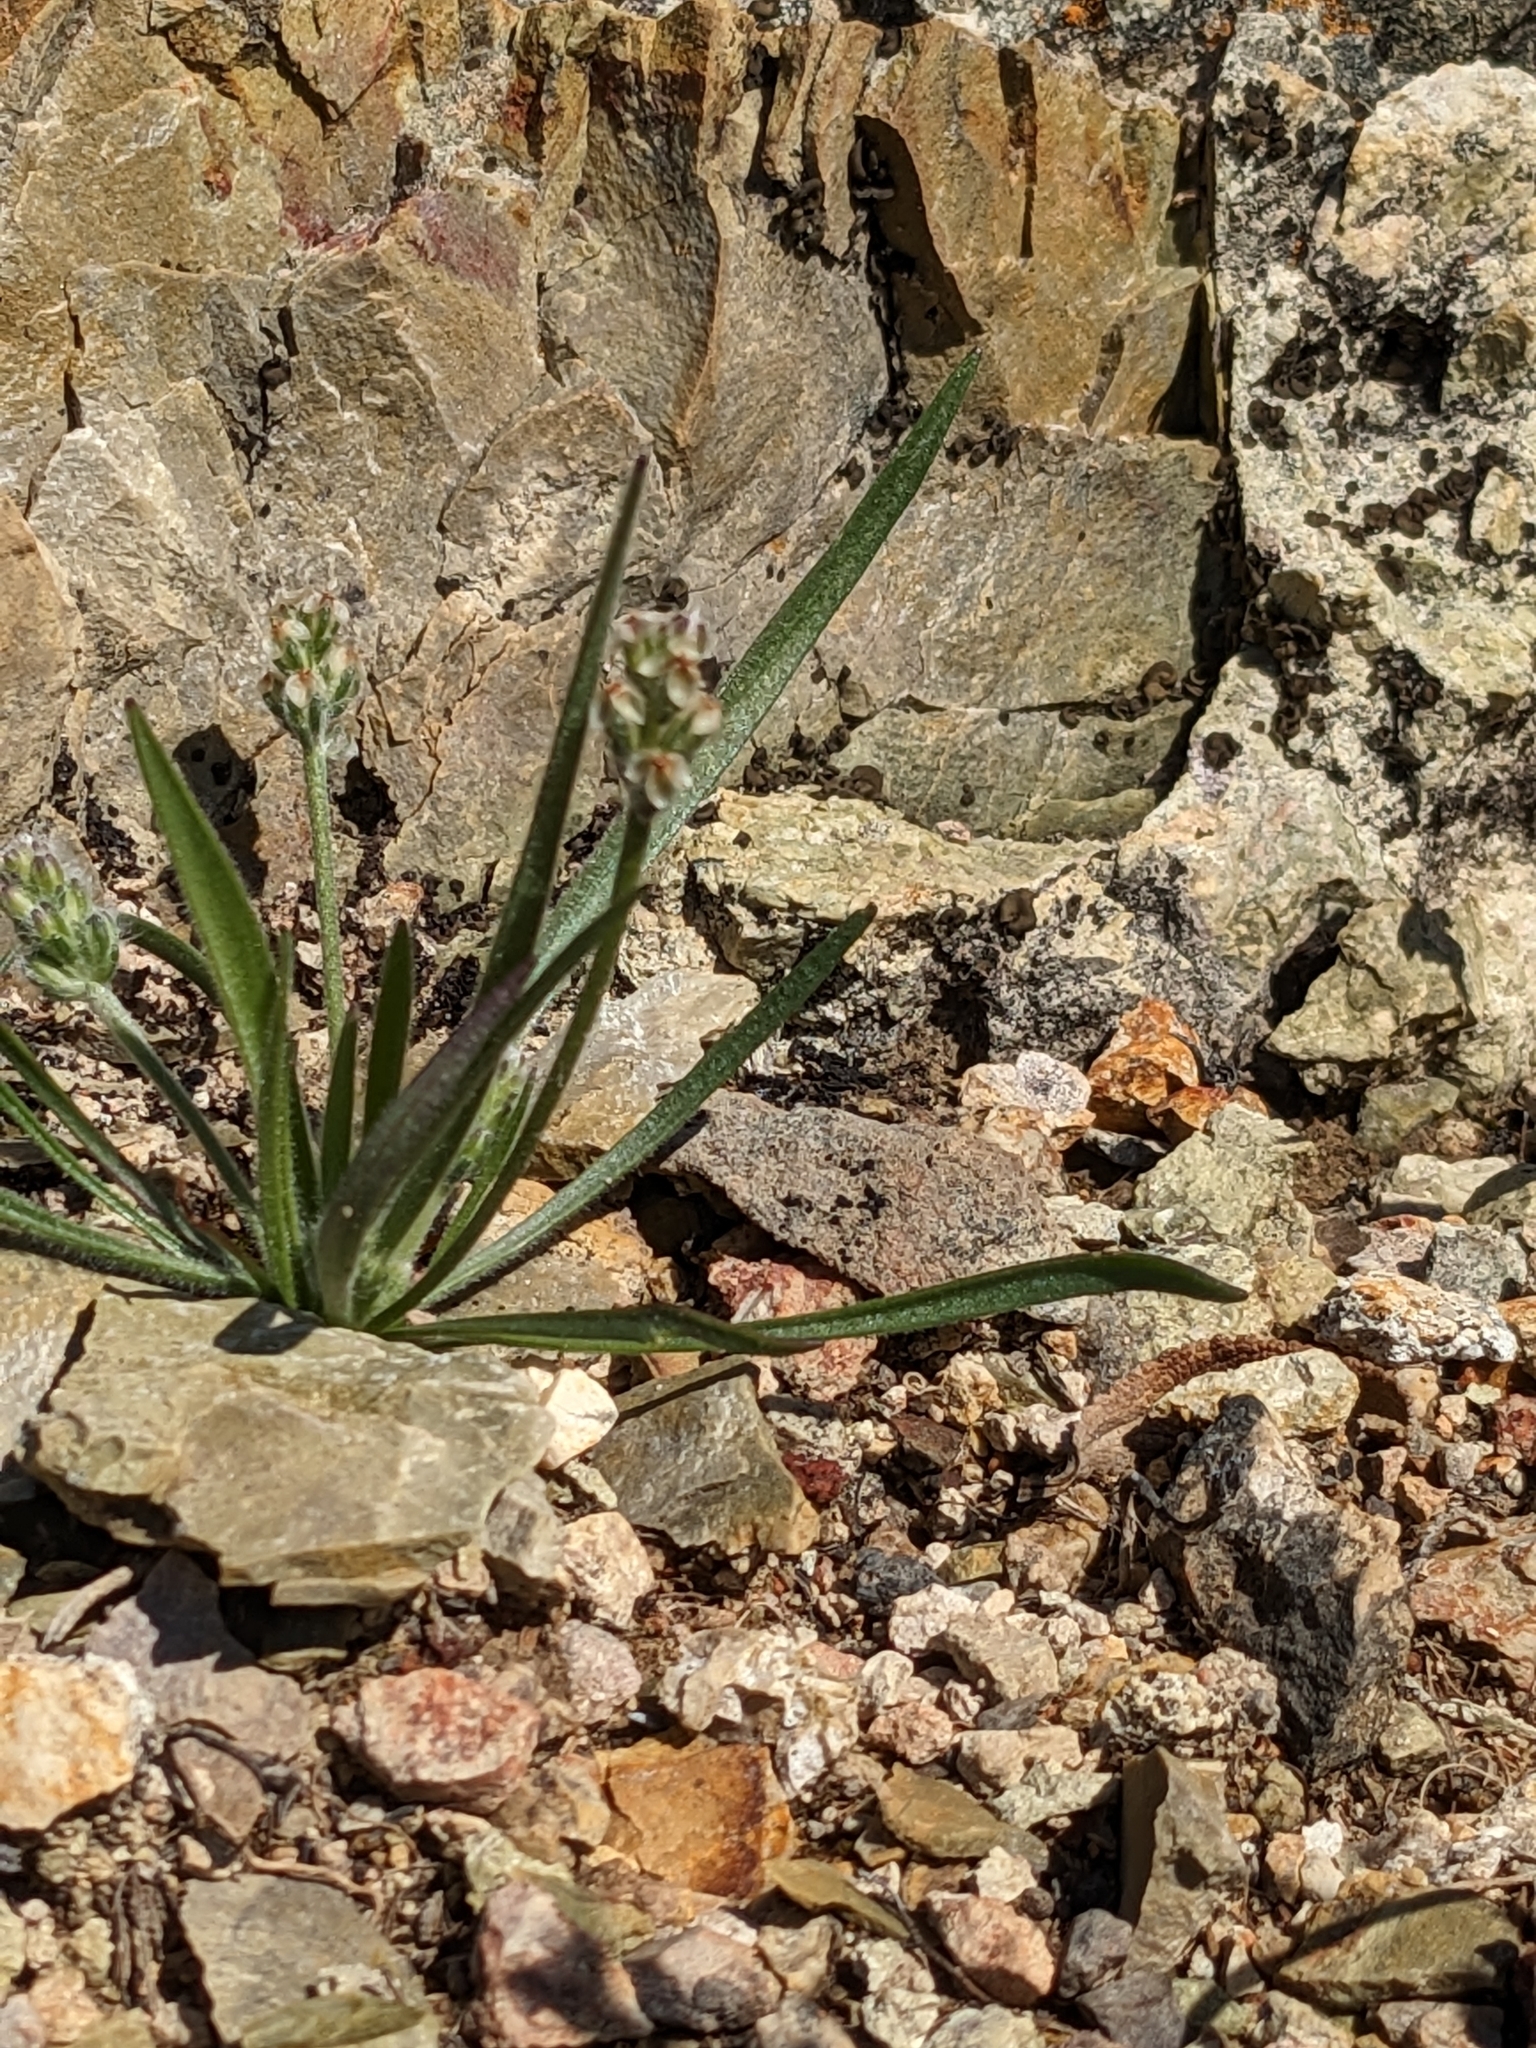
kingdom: Plantae
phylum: Tracheophyta
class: Magnoliopsida
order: Lamiales
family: Plantaginaceae
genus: Plantago
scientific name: Plantago ovata
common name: Blond plantain
